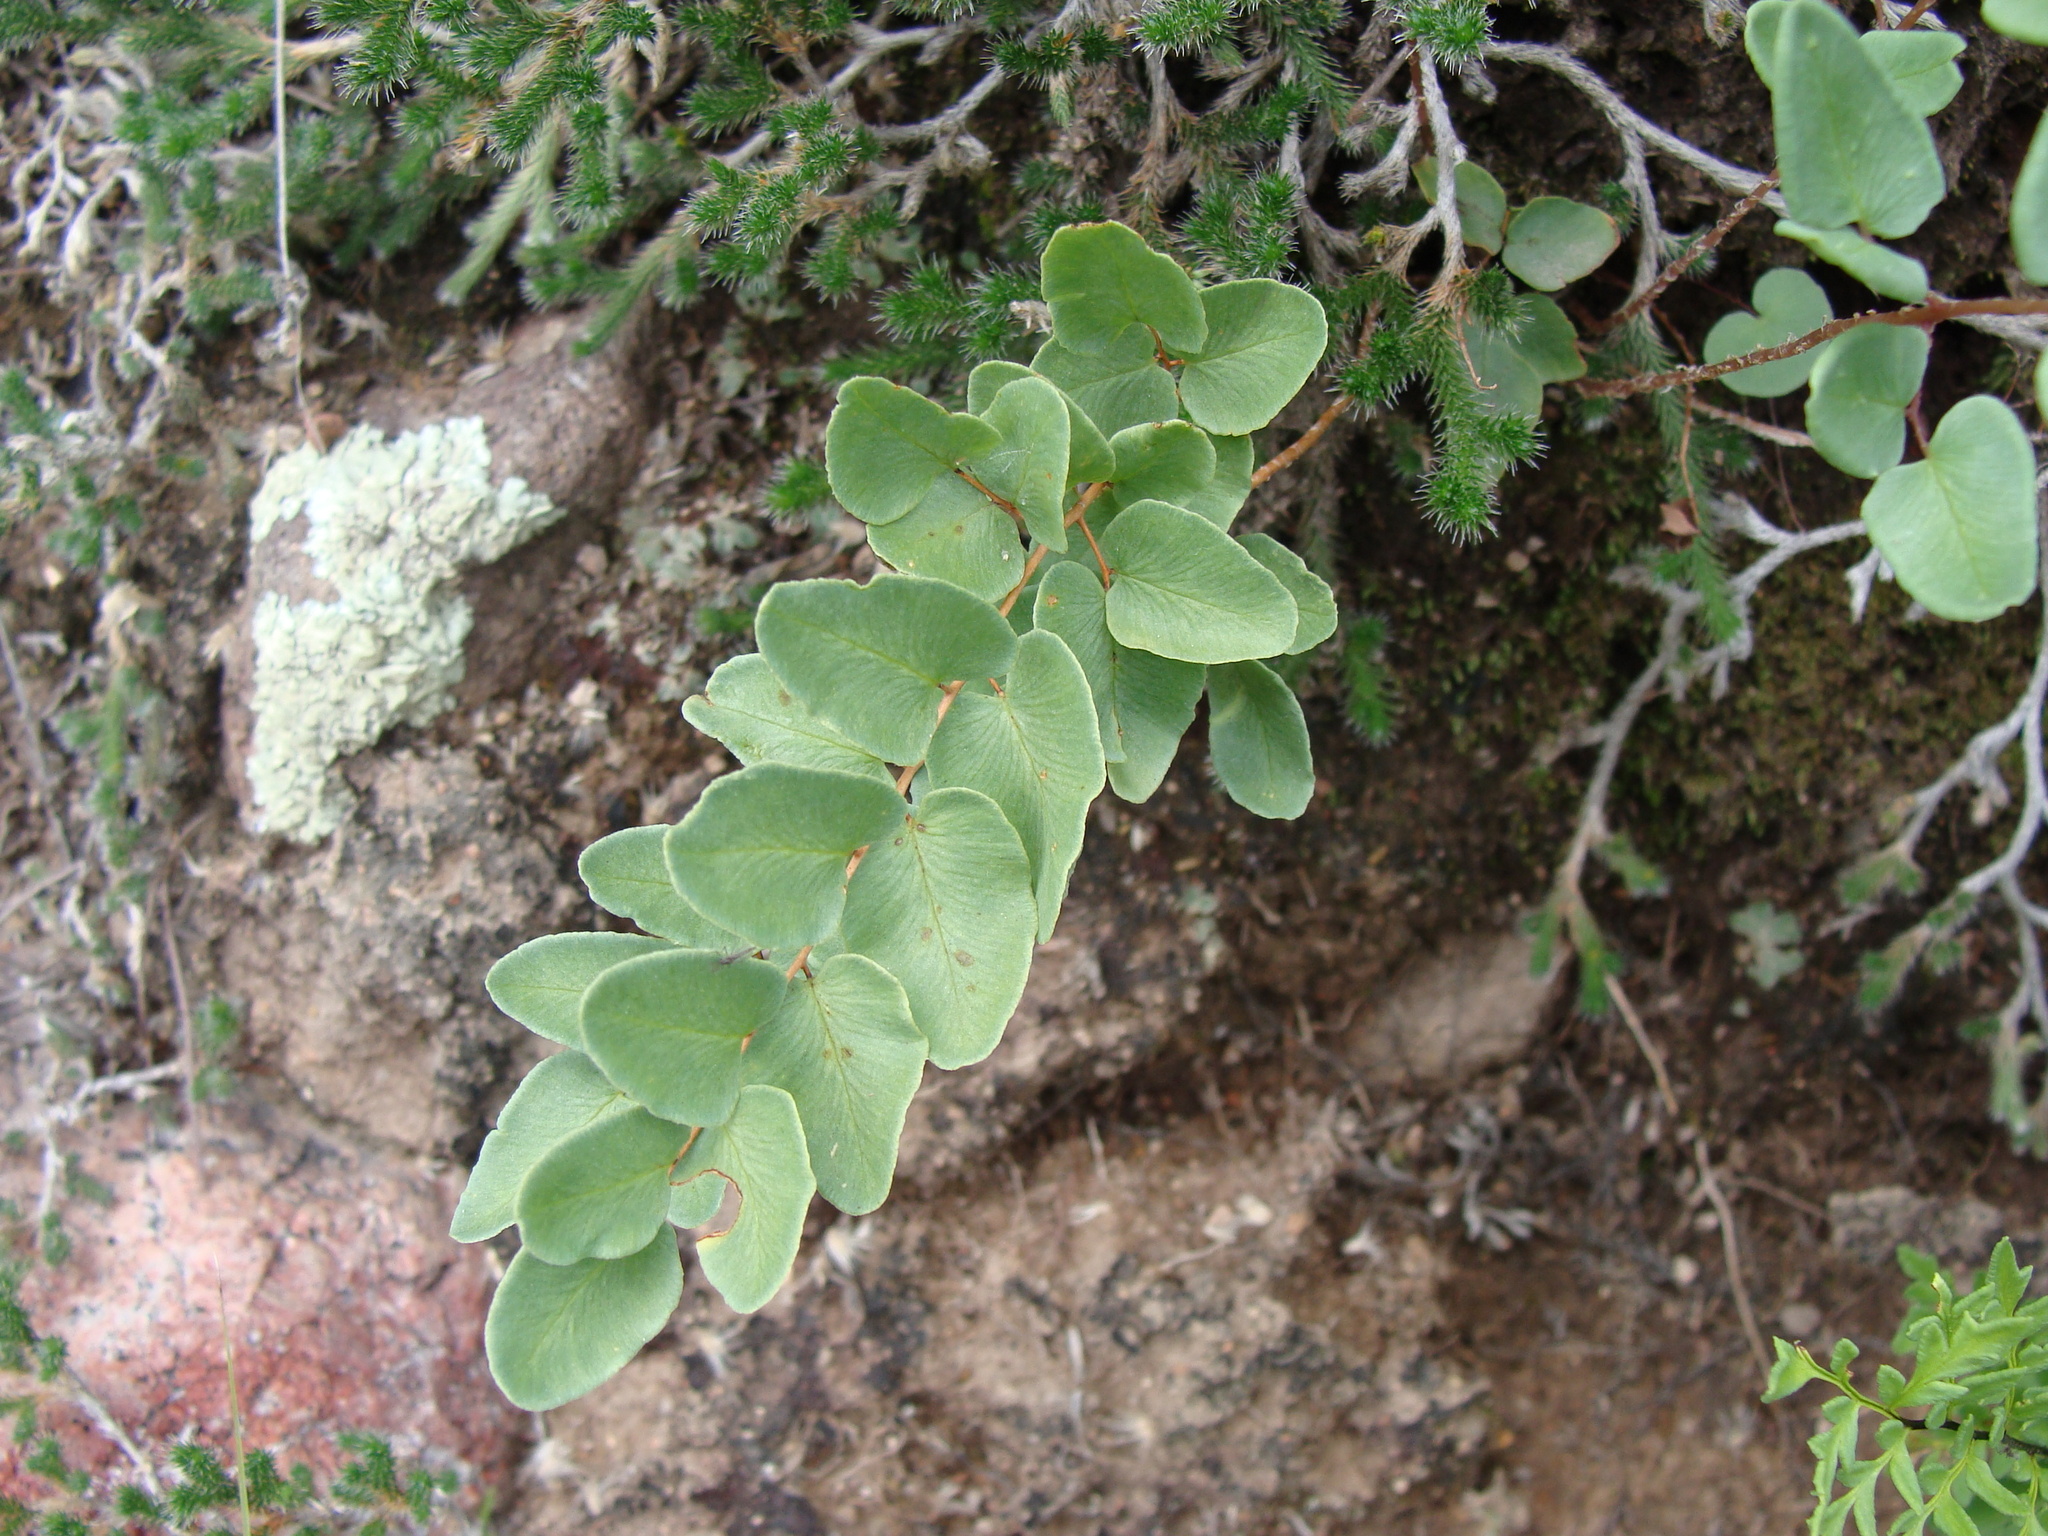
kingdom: Plantae
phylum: Tracheophyta
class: Polypodiopsida
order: Polypodiales
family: Pteridaceae
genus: Pellaea
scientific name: Pellaea cordifolia
